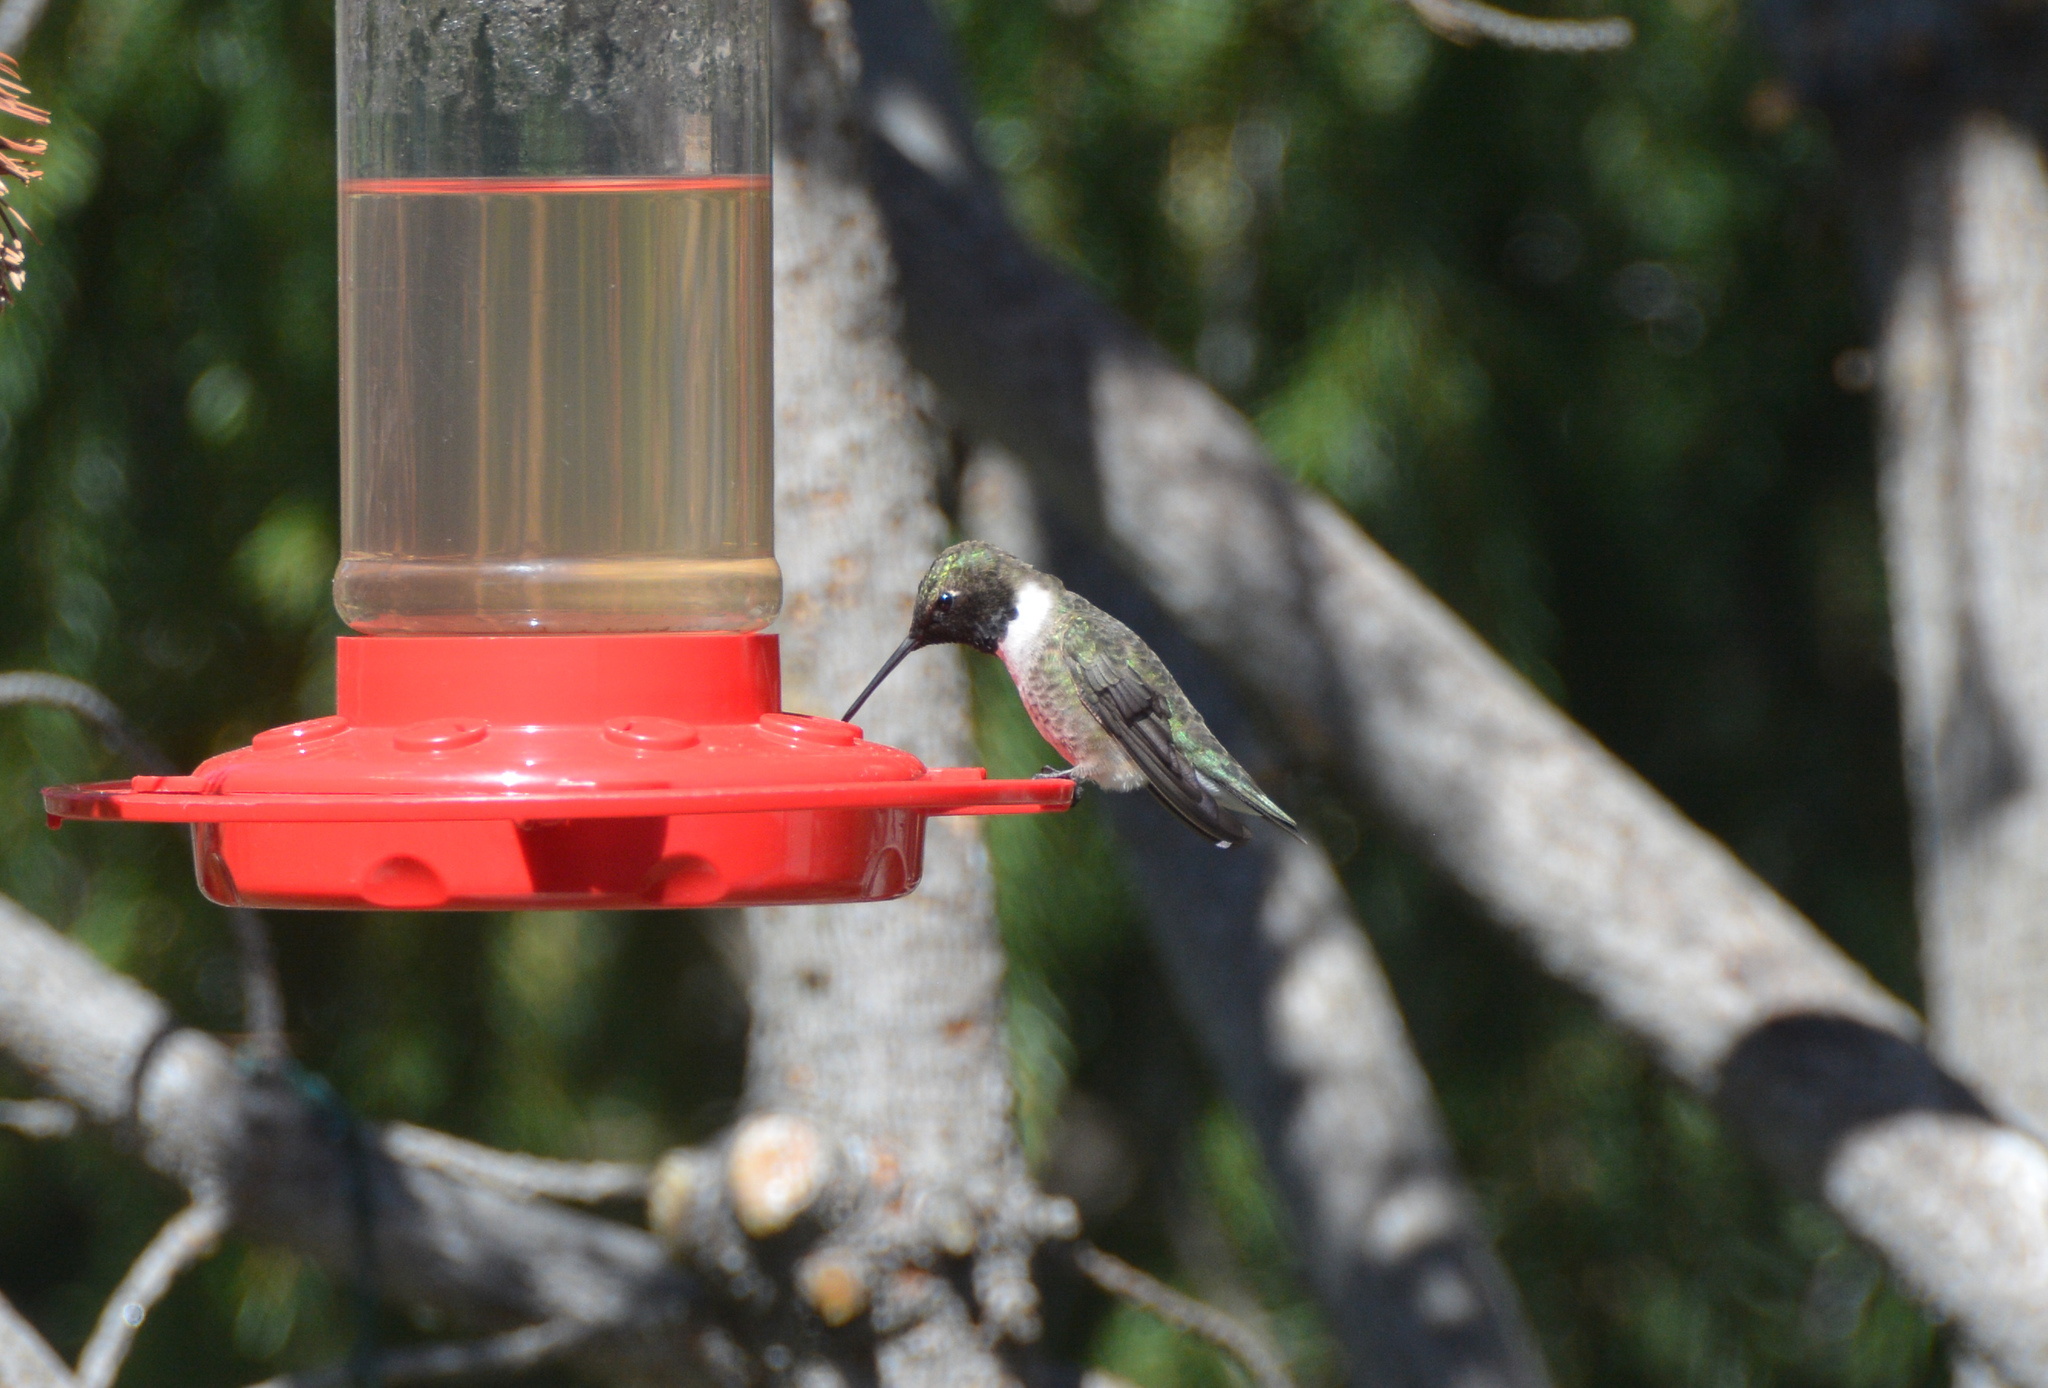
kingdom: Animalia
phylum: Chordata
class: Aves
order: Apodiformes
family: Trochilidae
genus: Archilochus
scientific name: Archilochus alexandri
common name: Black-chinned hummingbird
